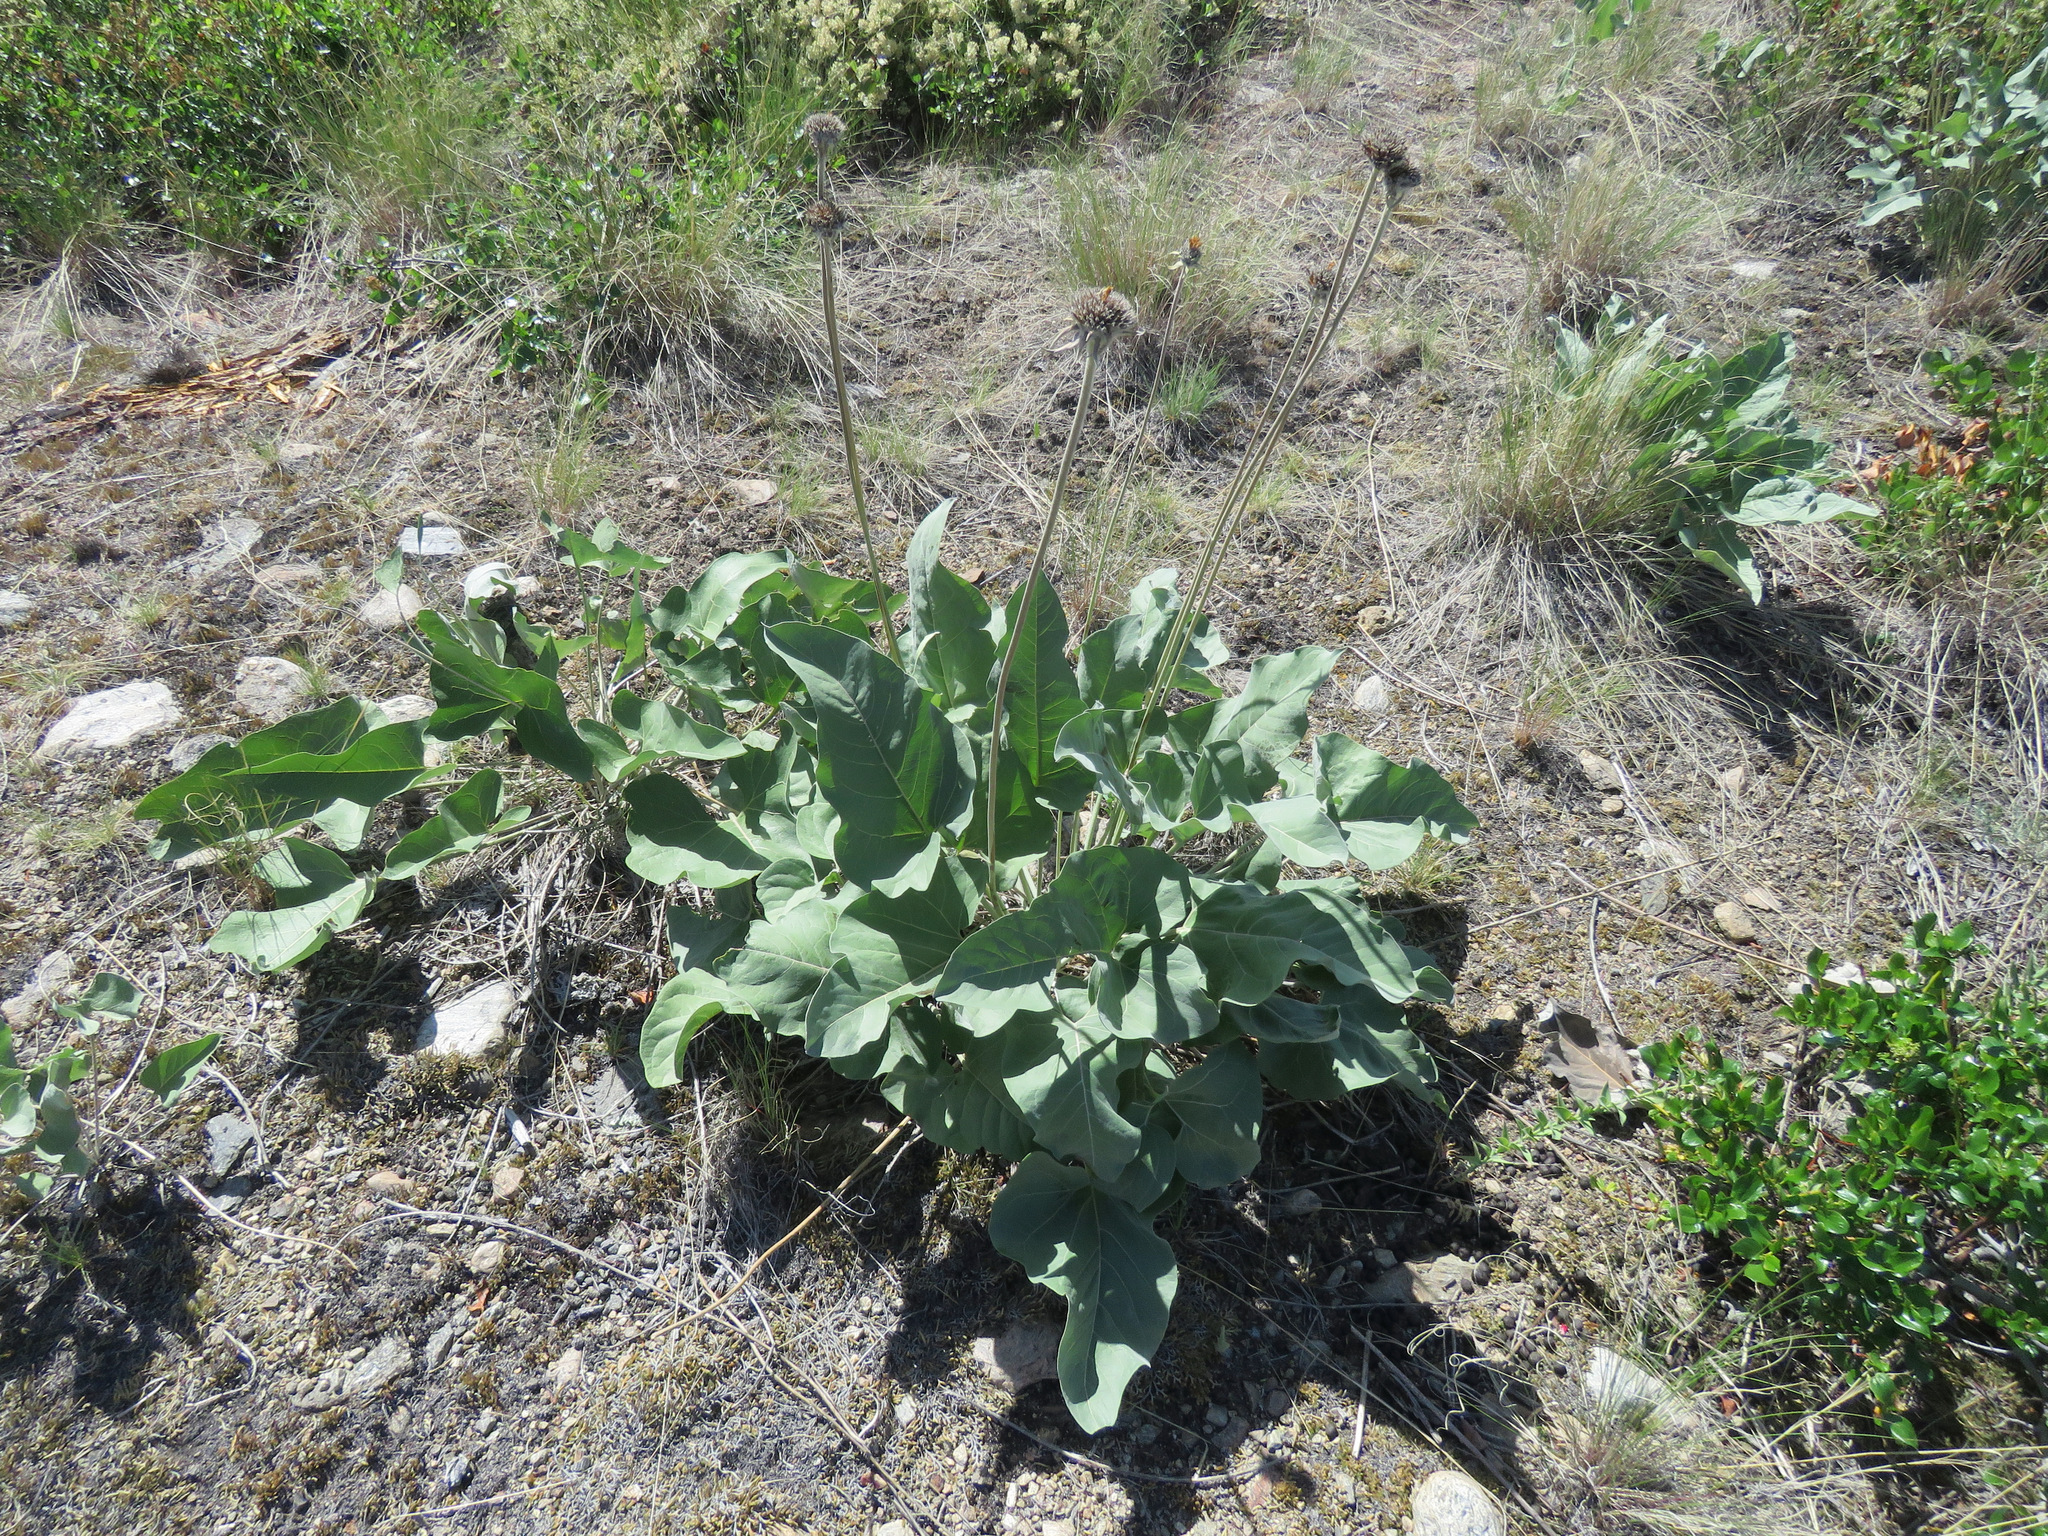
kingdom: Plantae
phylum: Tracheophyta
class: Magnoliopsida
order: Asterales
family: Asteraceae
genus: Wyethia
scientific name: Wyethia sagittata
